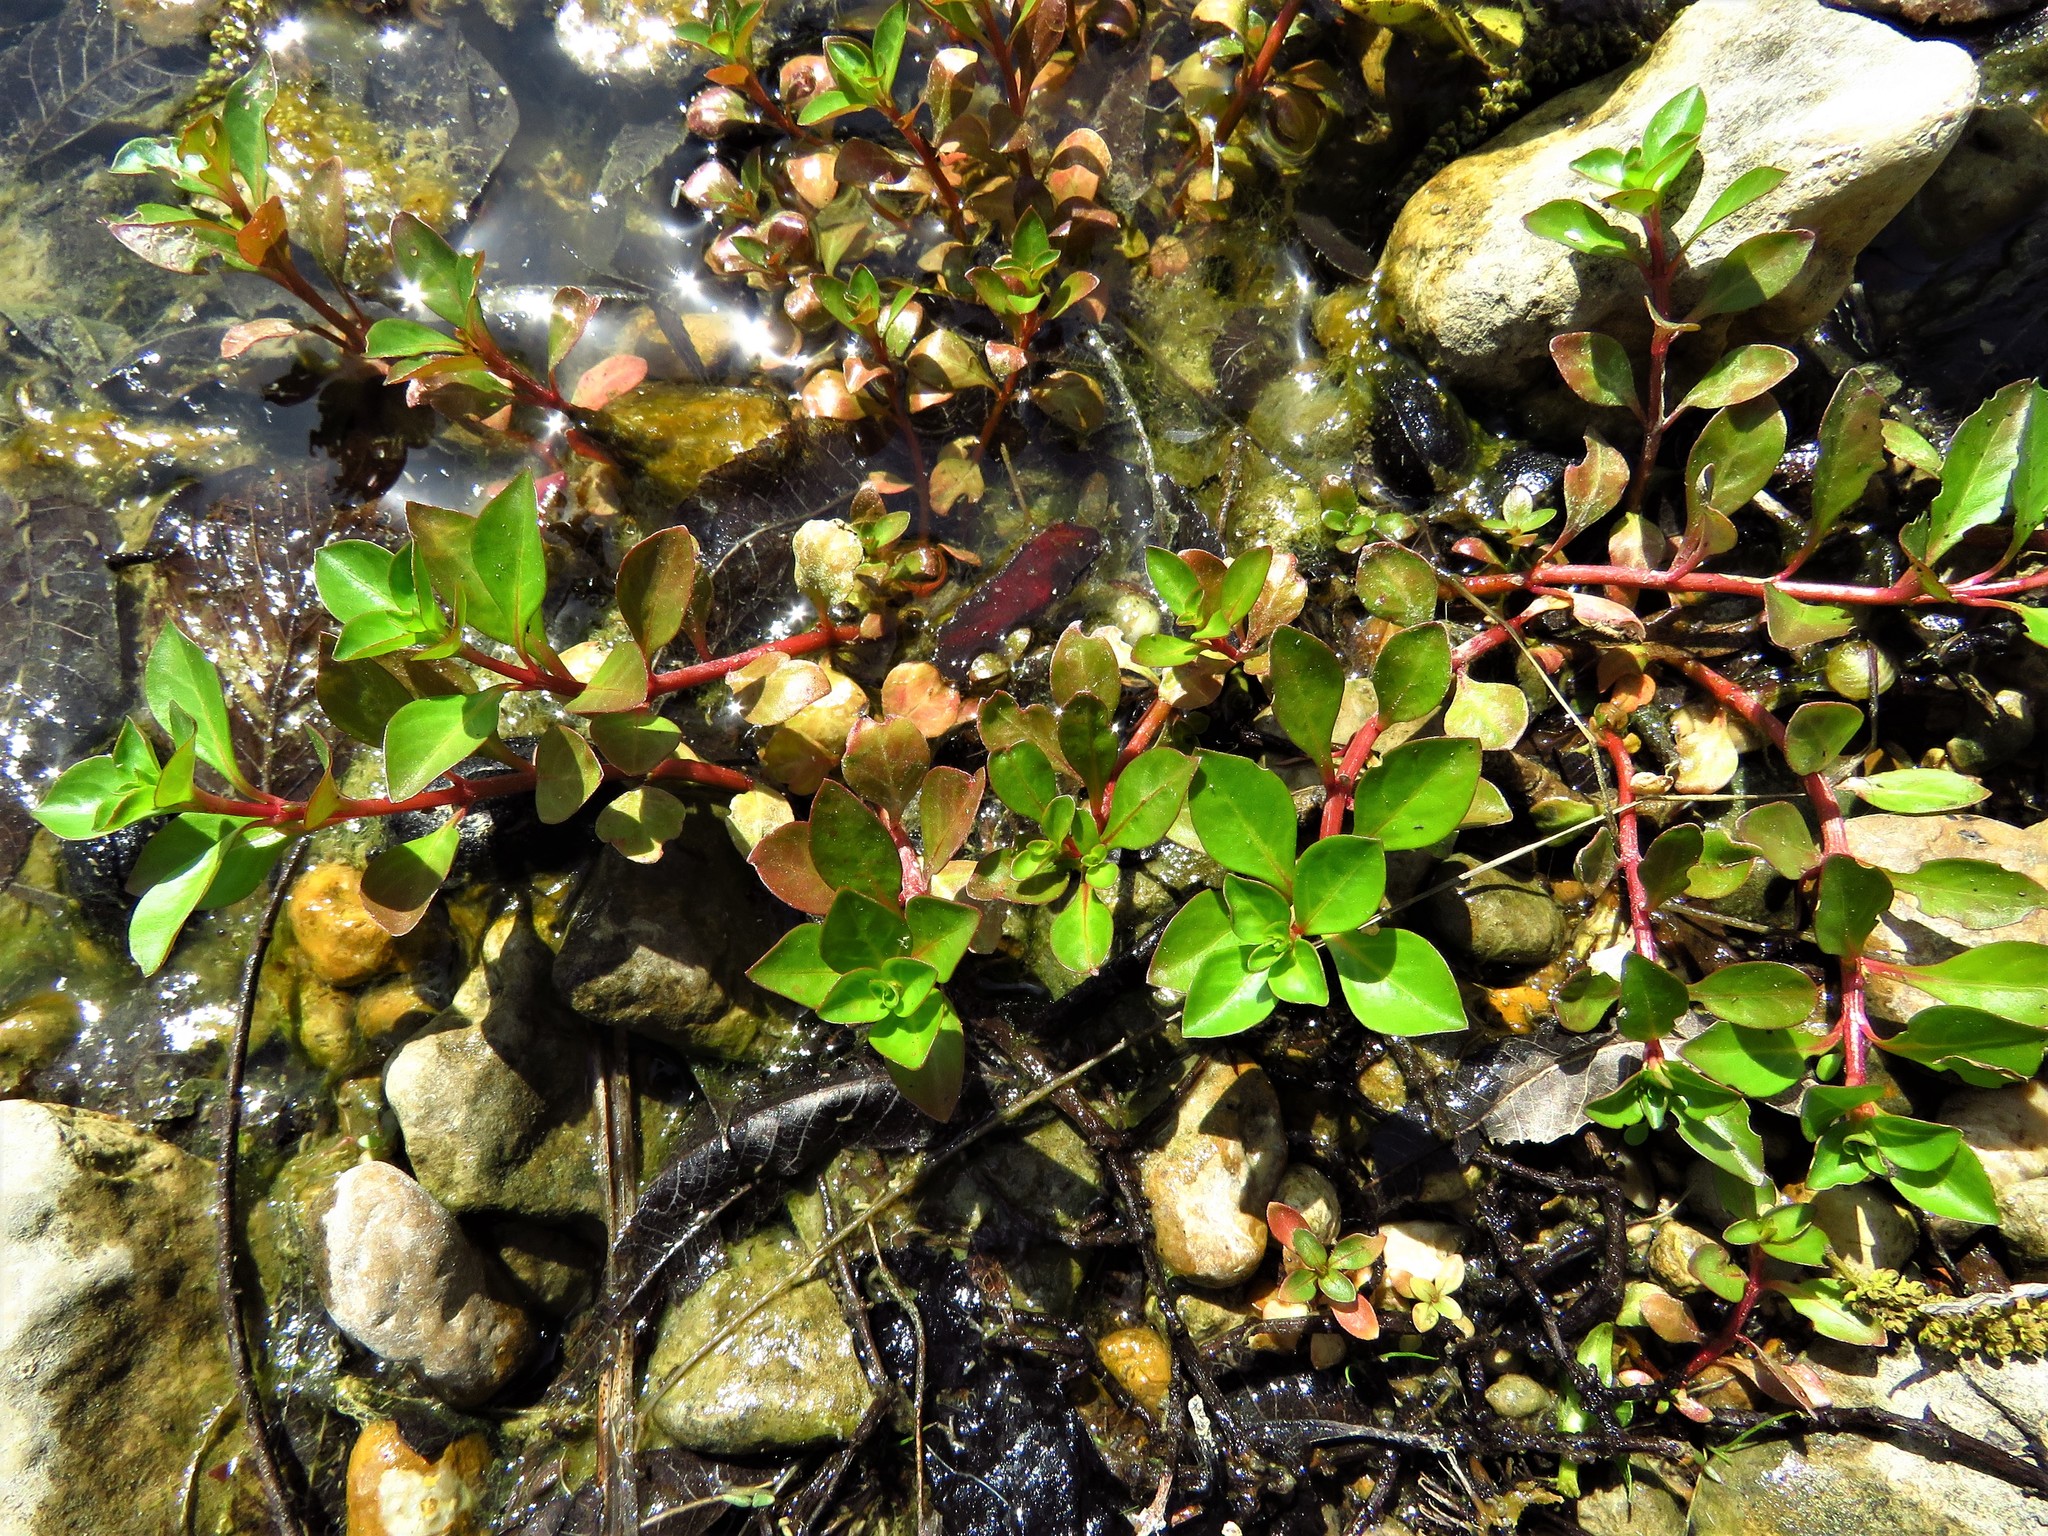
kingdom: Plantae
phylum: Tracheophyta
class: Magnoliopsida
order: Myrtales
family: Onagraceae
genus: Ludwigia
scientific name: Ludwigia peploides
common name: Floating primrose-willow
